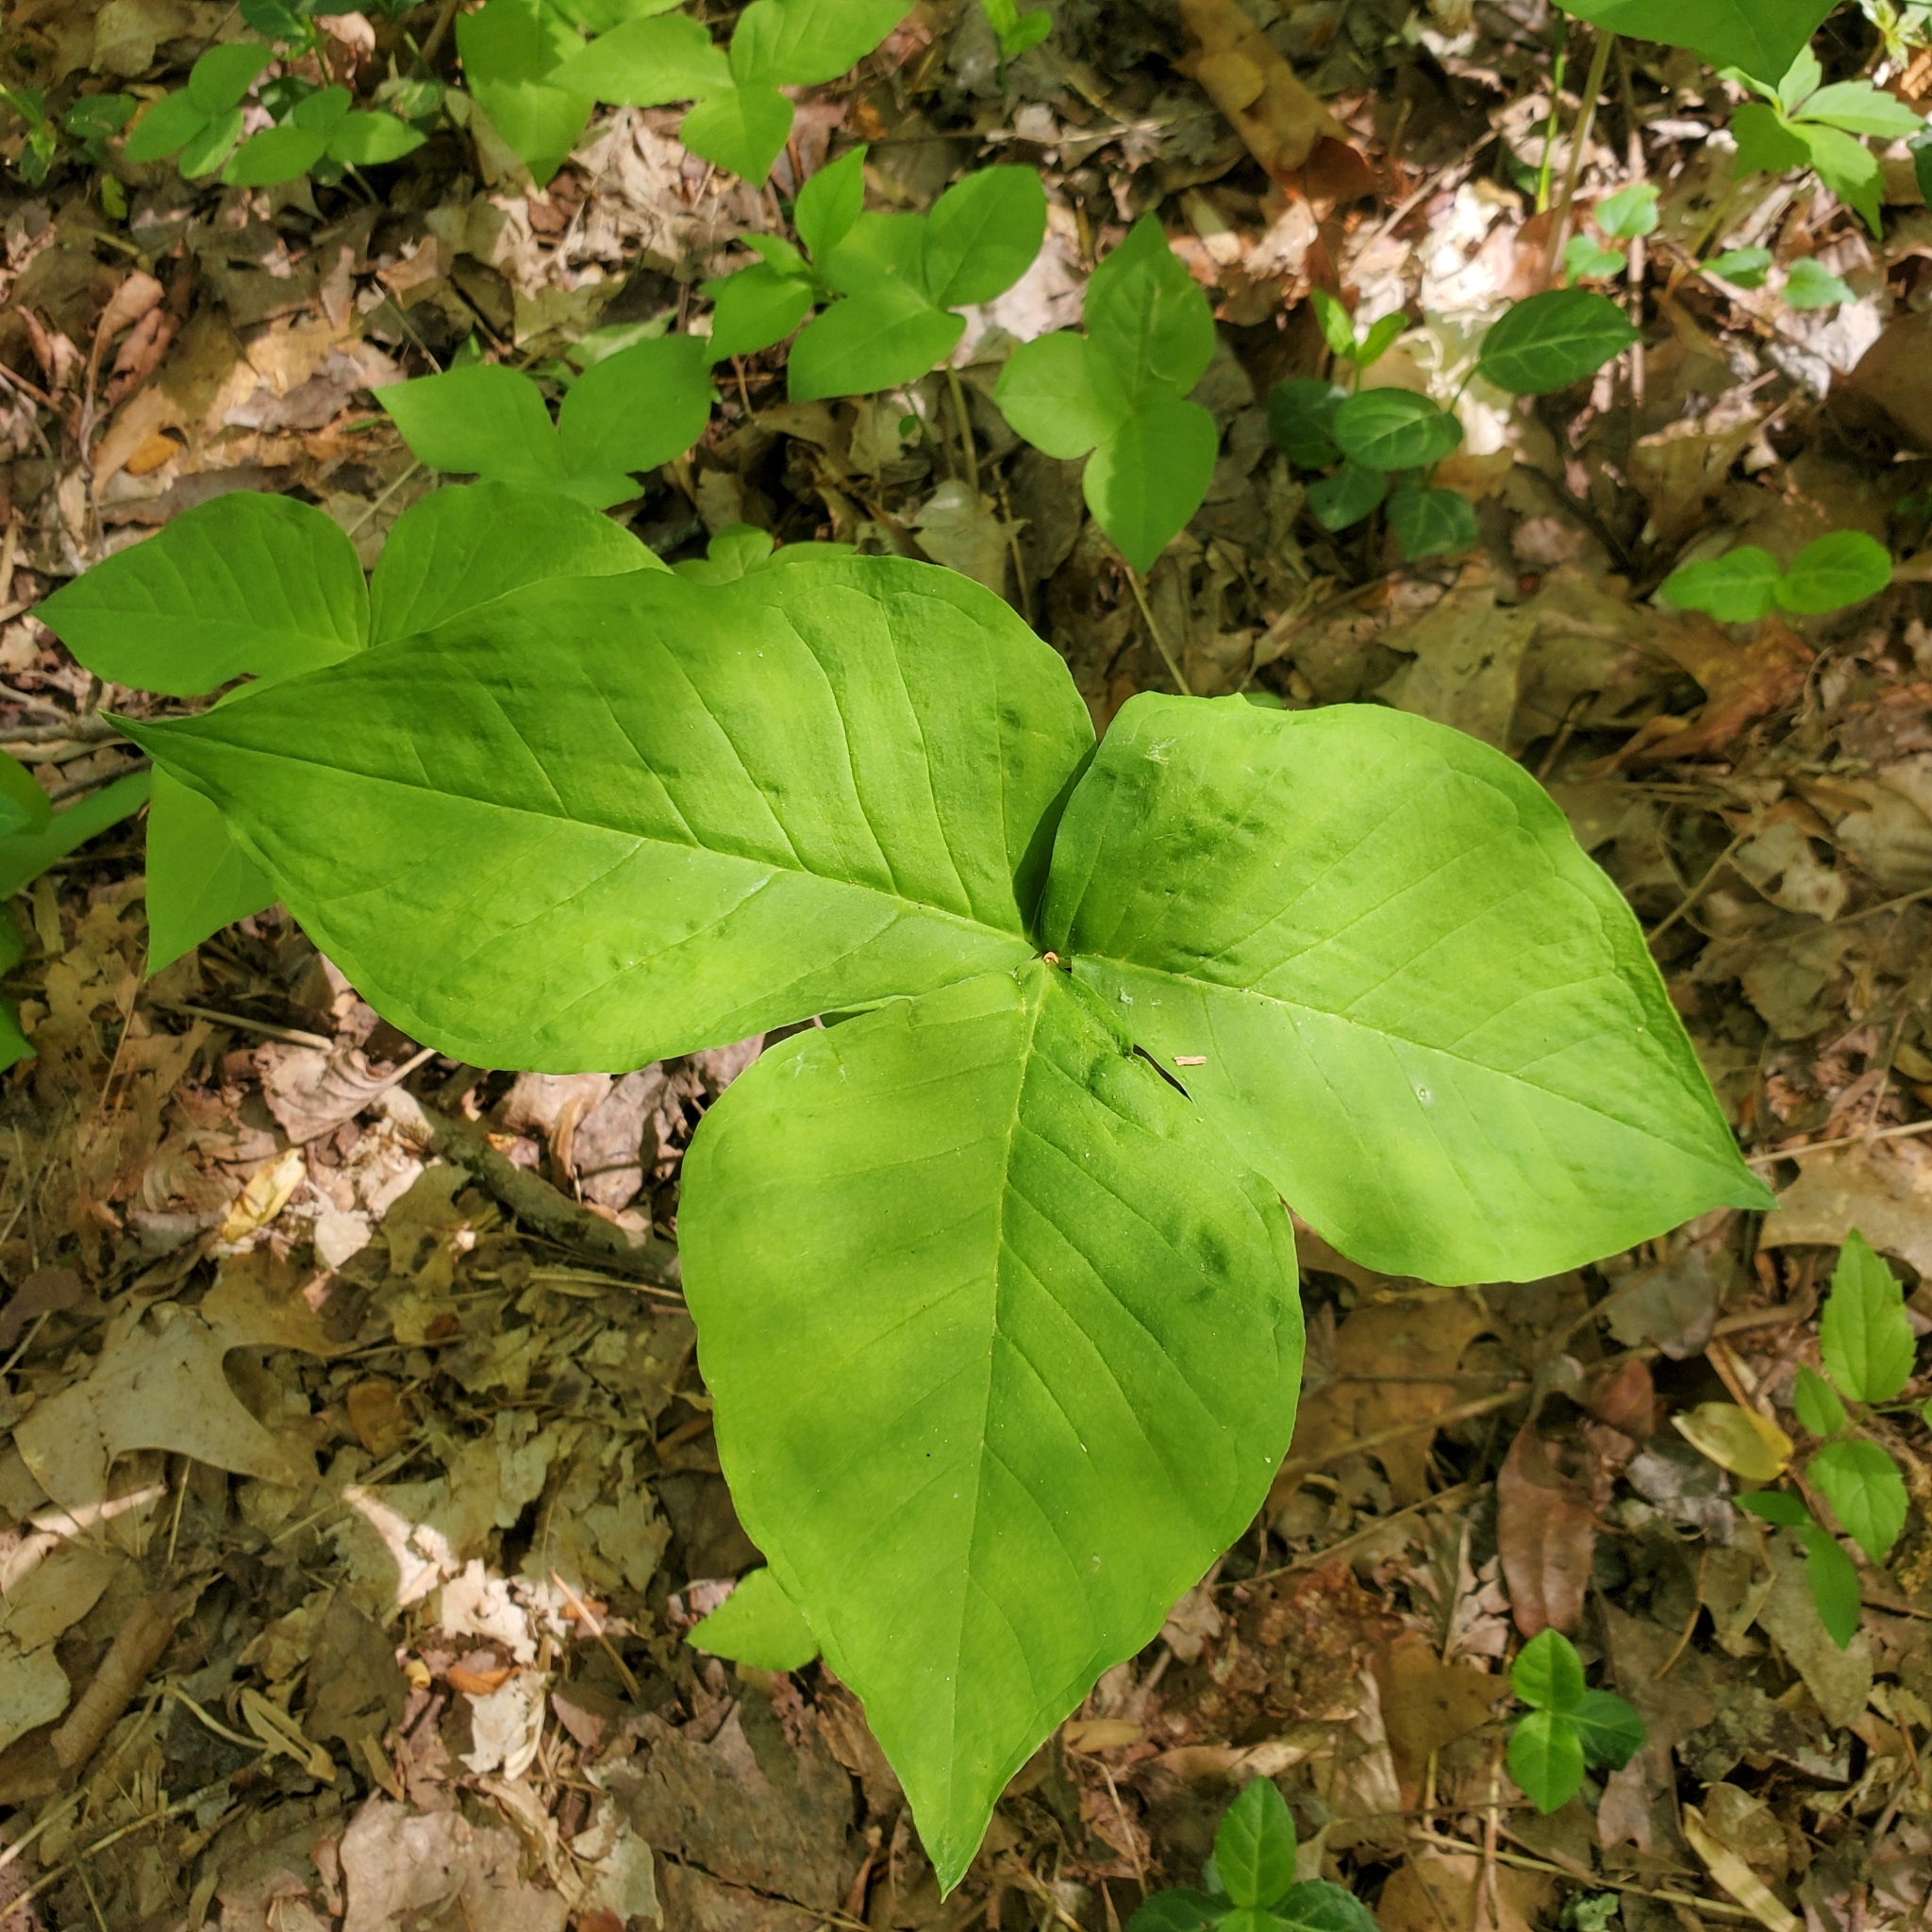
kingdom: Plantae
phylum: Tracheophyta
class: Liliopsida
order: Alismatales
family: Araceae
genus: Arisaema
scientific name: Arisaema triphyllum
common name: Jack-in-the-pulpit
